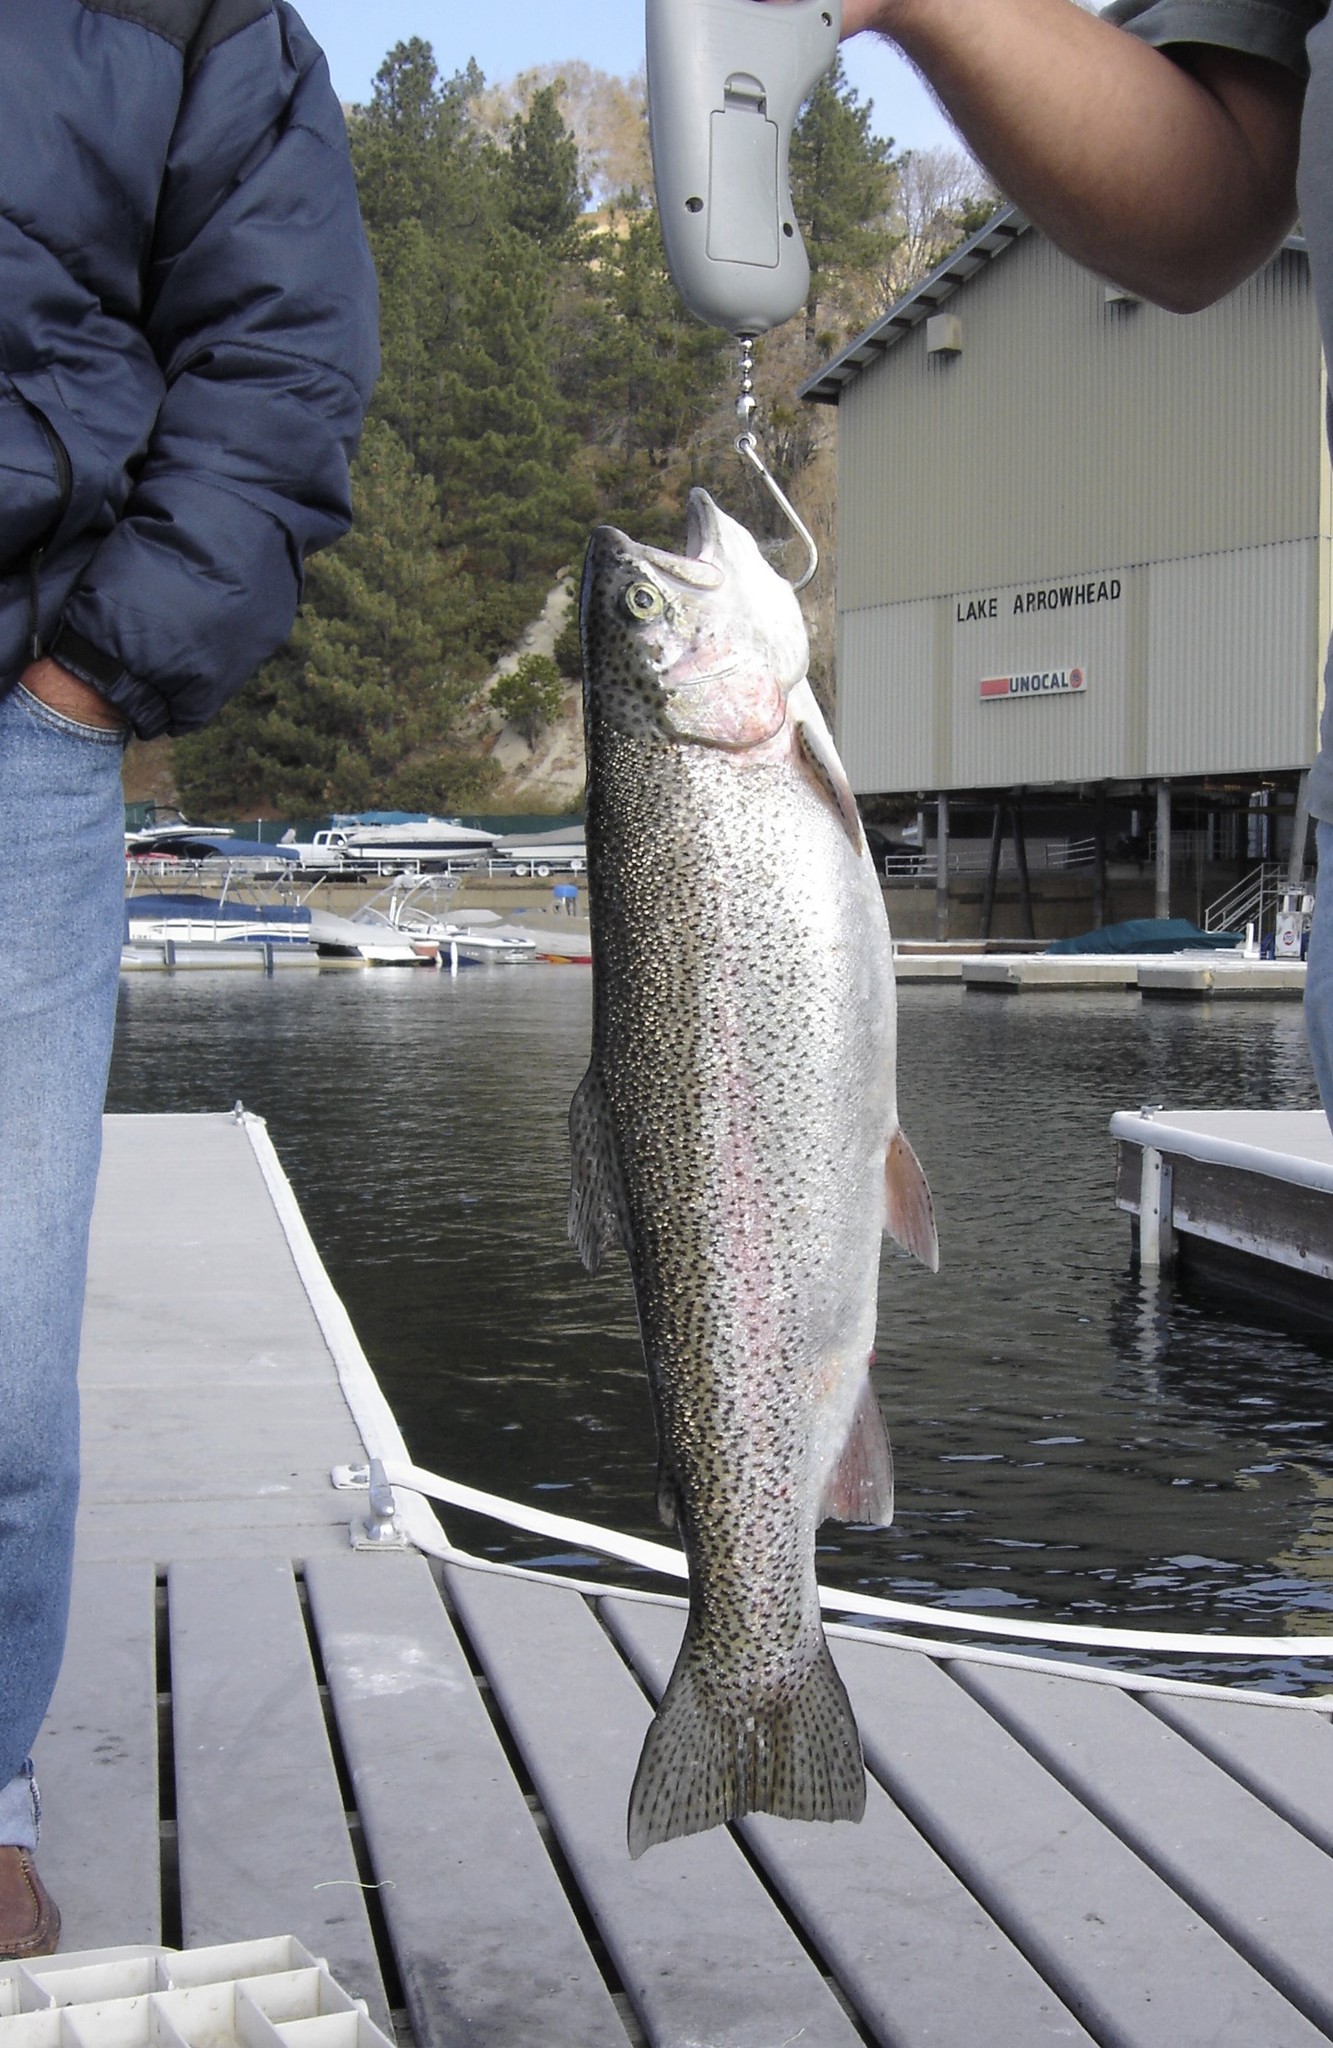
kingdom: Animalia
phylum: Chordata
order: Salmoniformes
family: Salmonidae
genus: Oncorhynchus
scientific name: Oncorhynchus mykiss
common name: Rainbow trout
